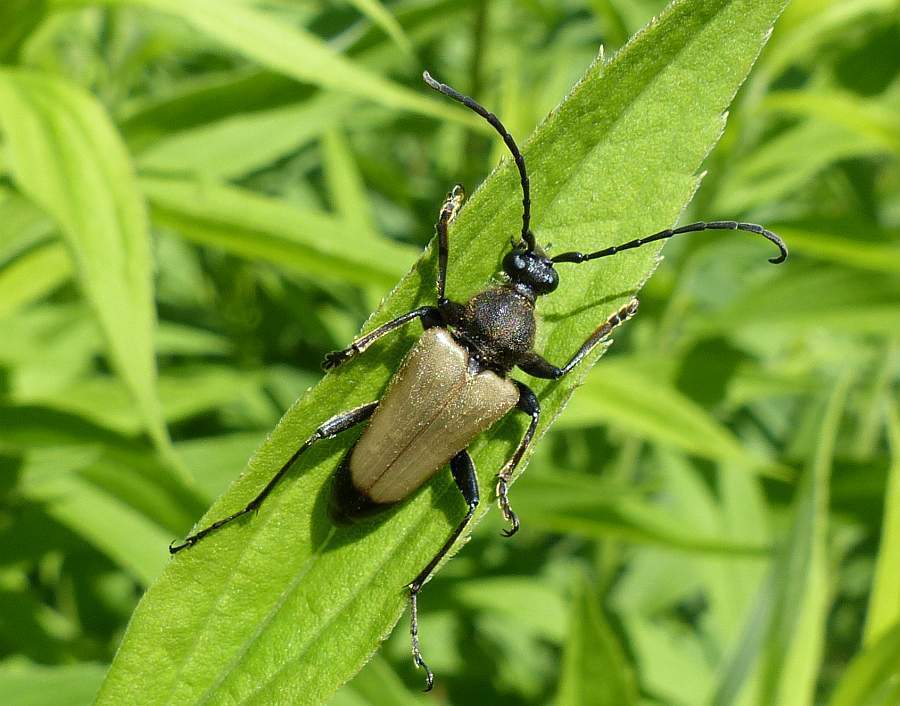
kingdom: Animalia
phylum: Arthropoda
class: Insecta
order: Coleoptera
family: Cerambycidae
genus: Trigonarthris
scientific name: Trigonarthris proxima
